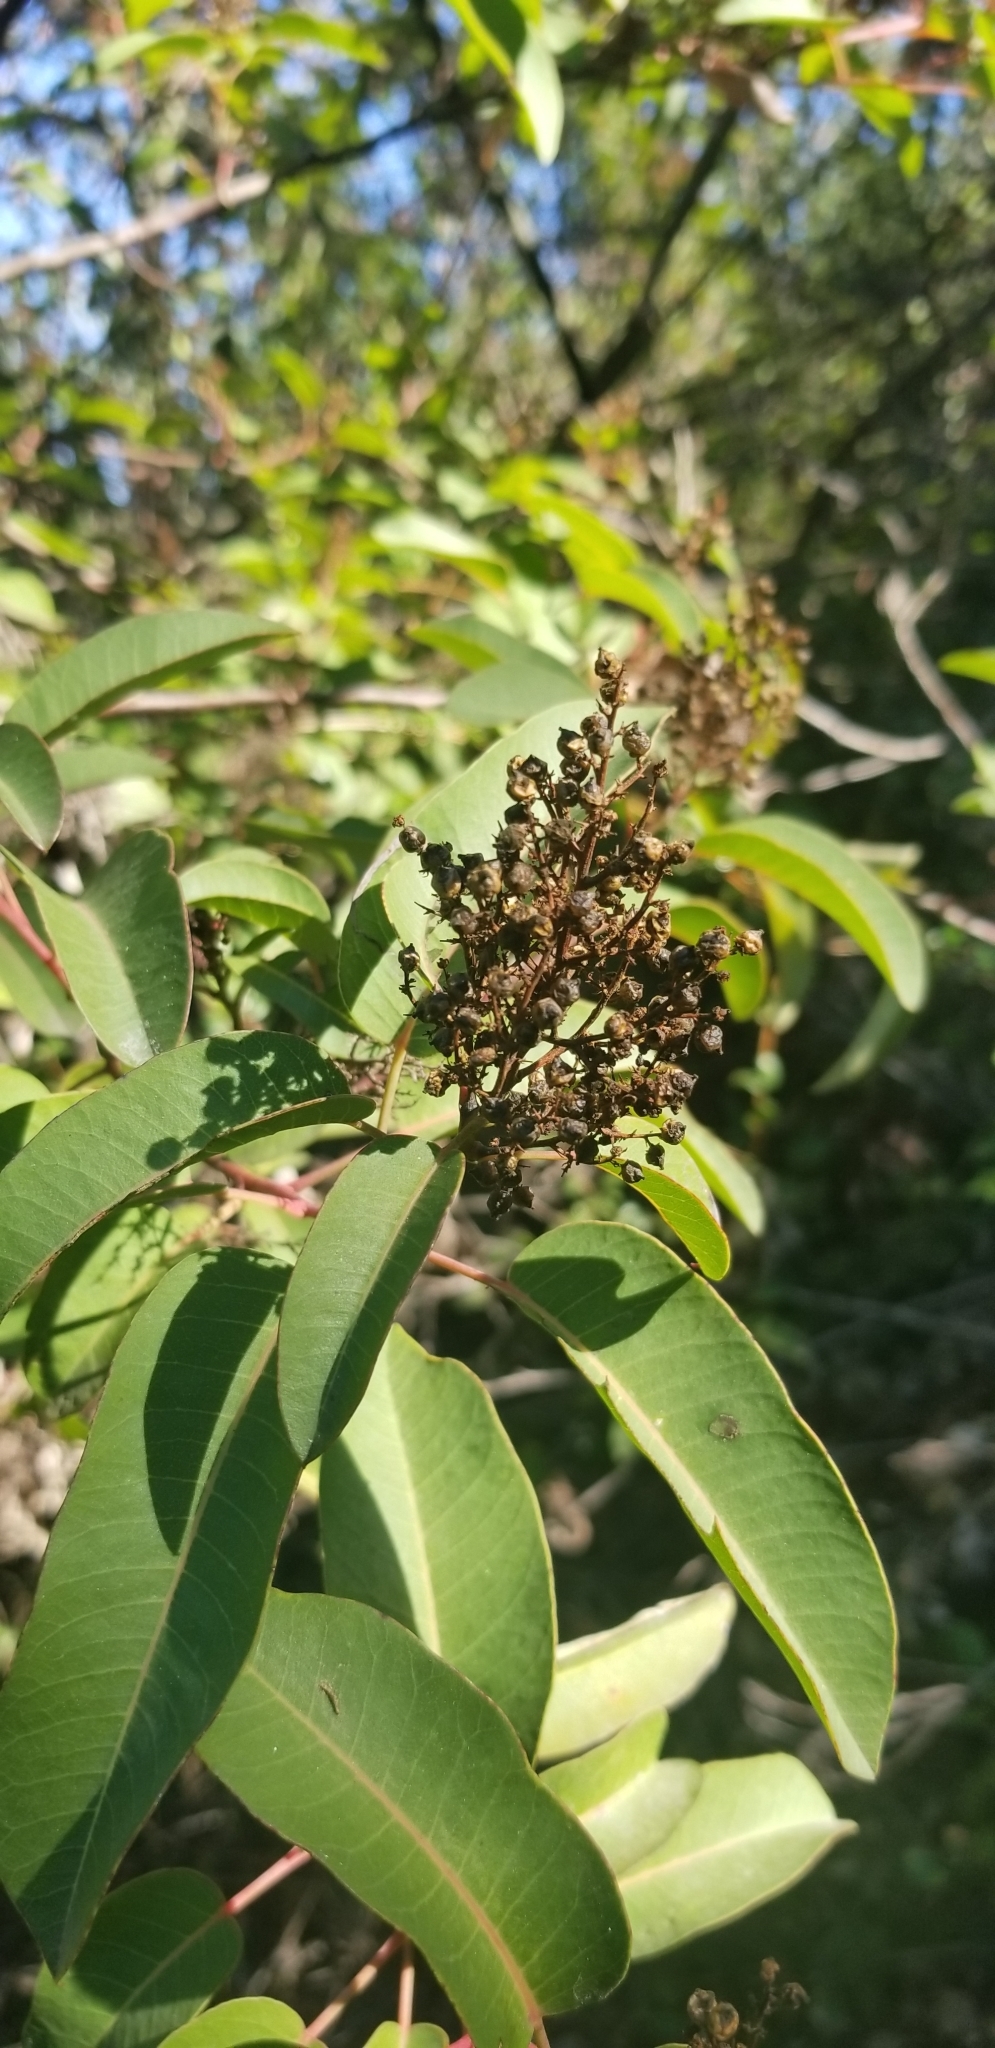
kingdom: Plantae
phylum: Tracheophyta
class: Magnoliopsida
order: Sapindales
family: Anacardiaceae
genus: Malosma
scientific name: Malosma laurina
